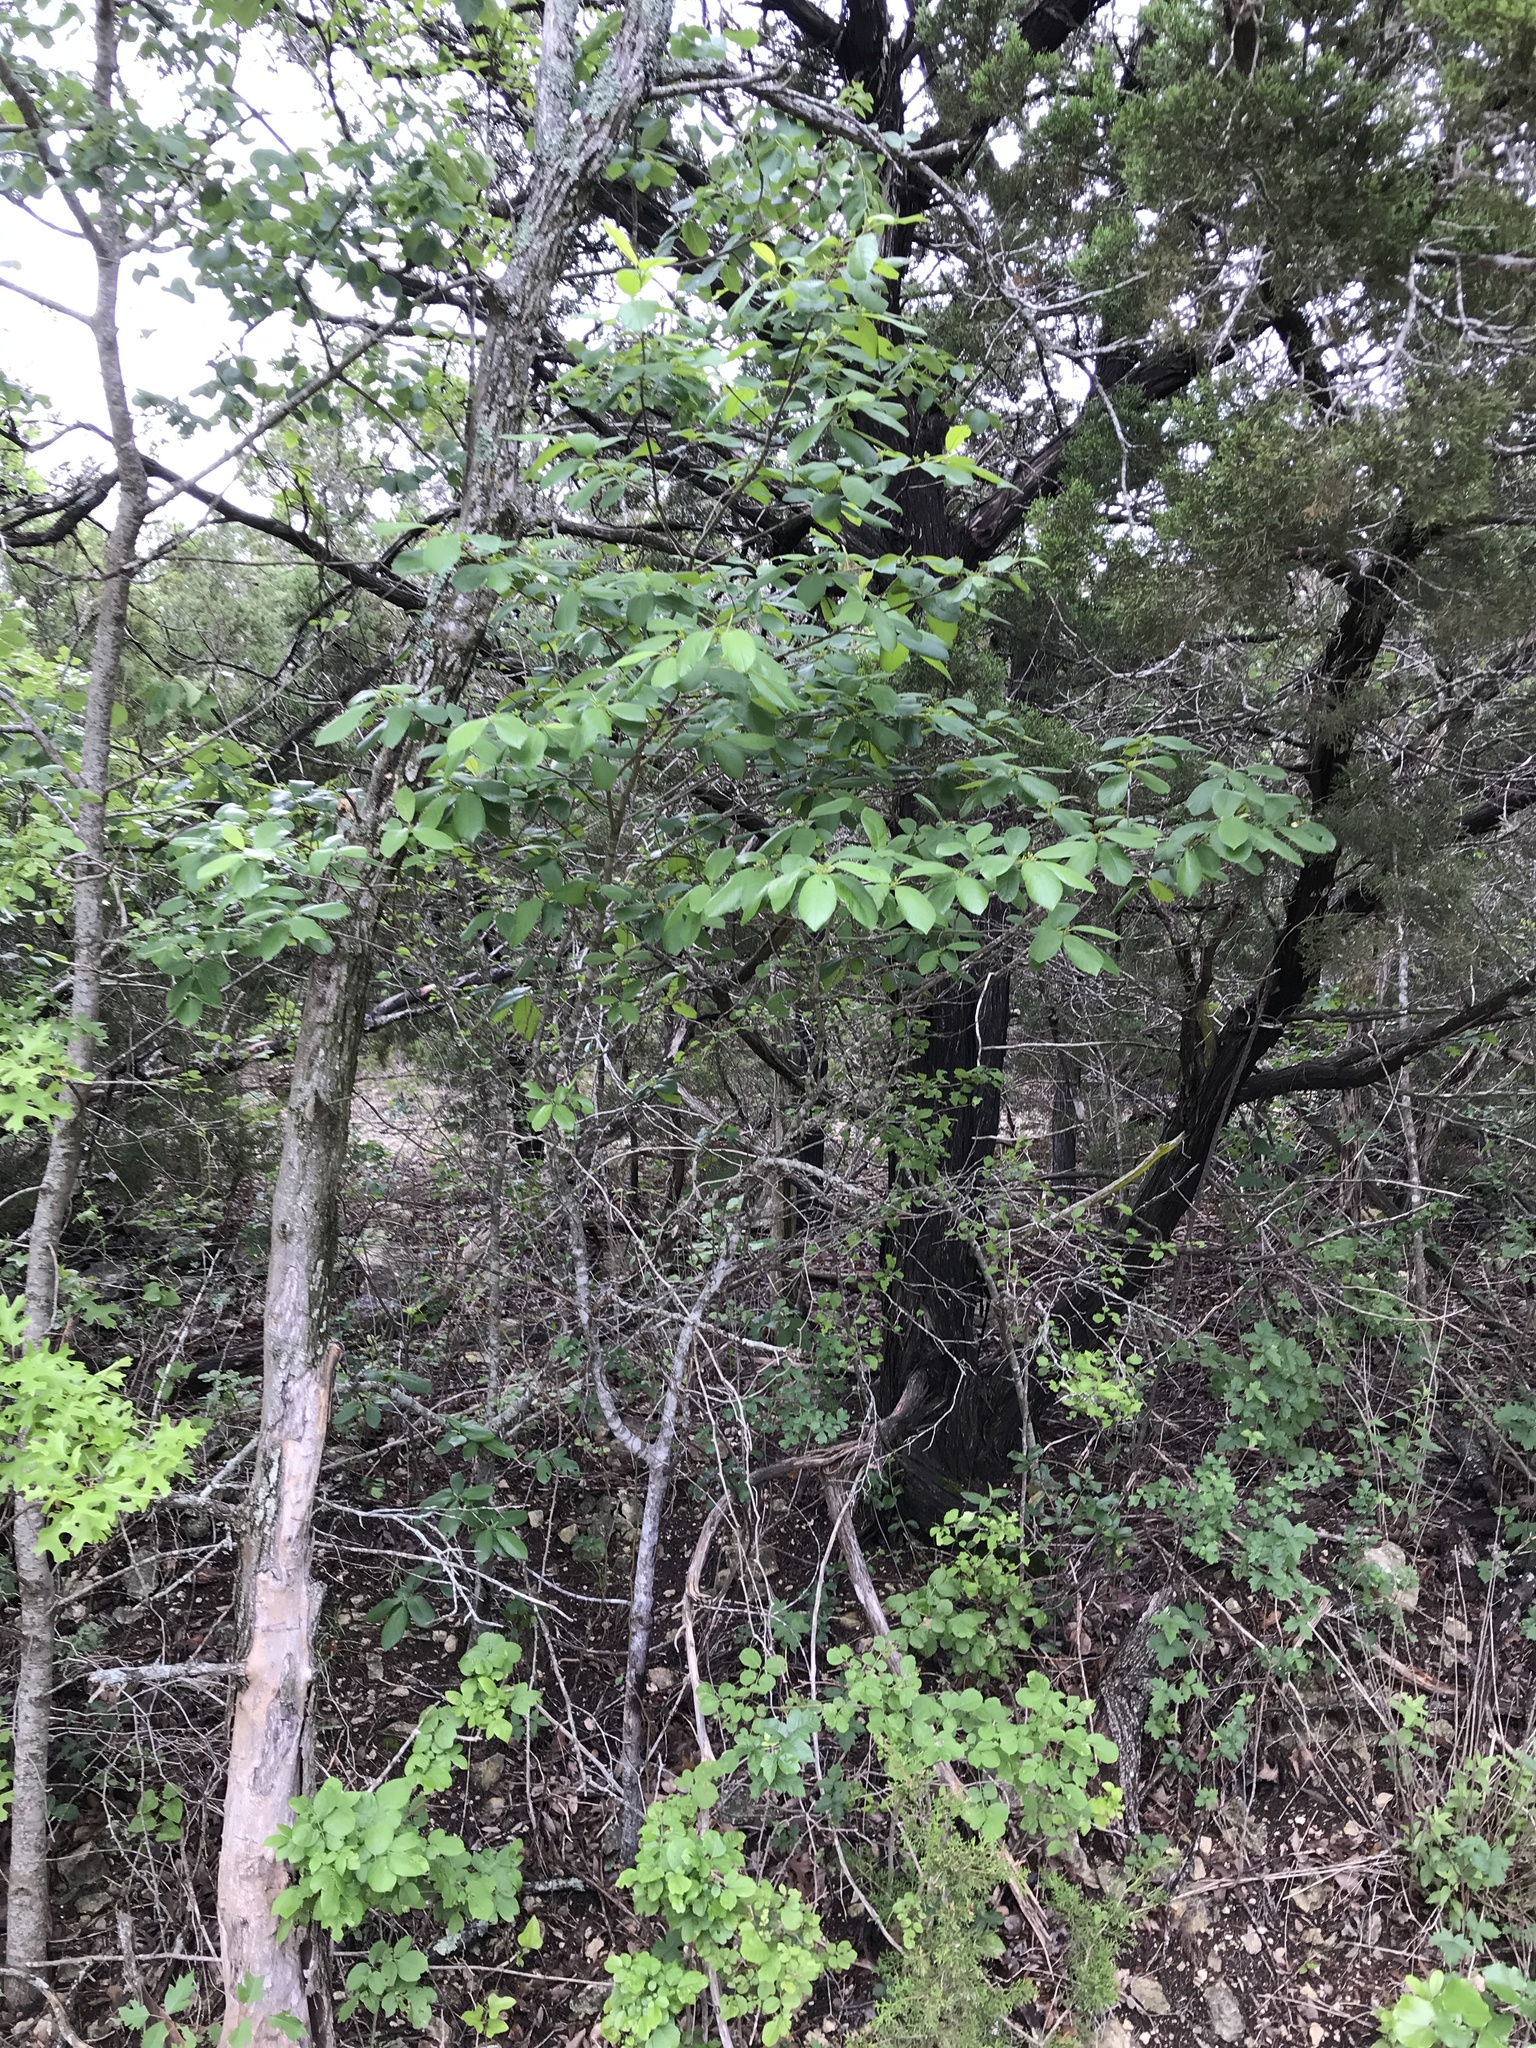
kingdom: Plantae
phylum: Tracheophyta
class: Magnoliopsida
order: Rosales
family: Rhamnaceae
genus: Frangula
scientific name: Frangula caroliniana
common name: Carolina buckthorn
